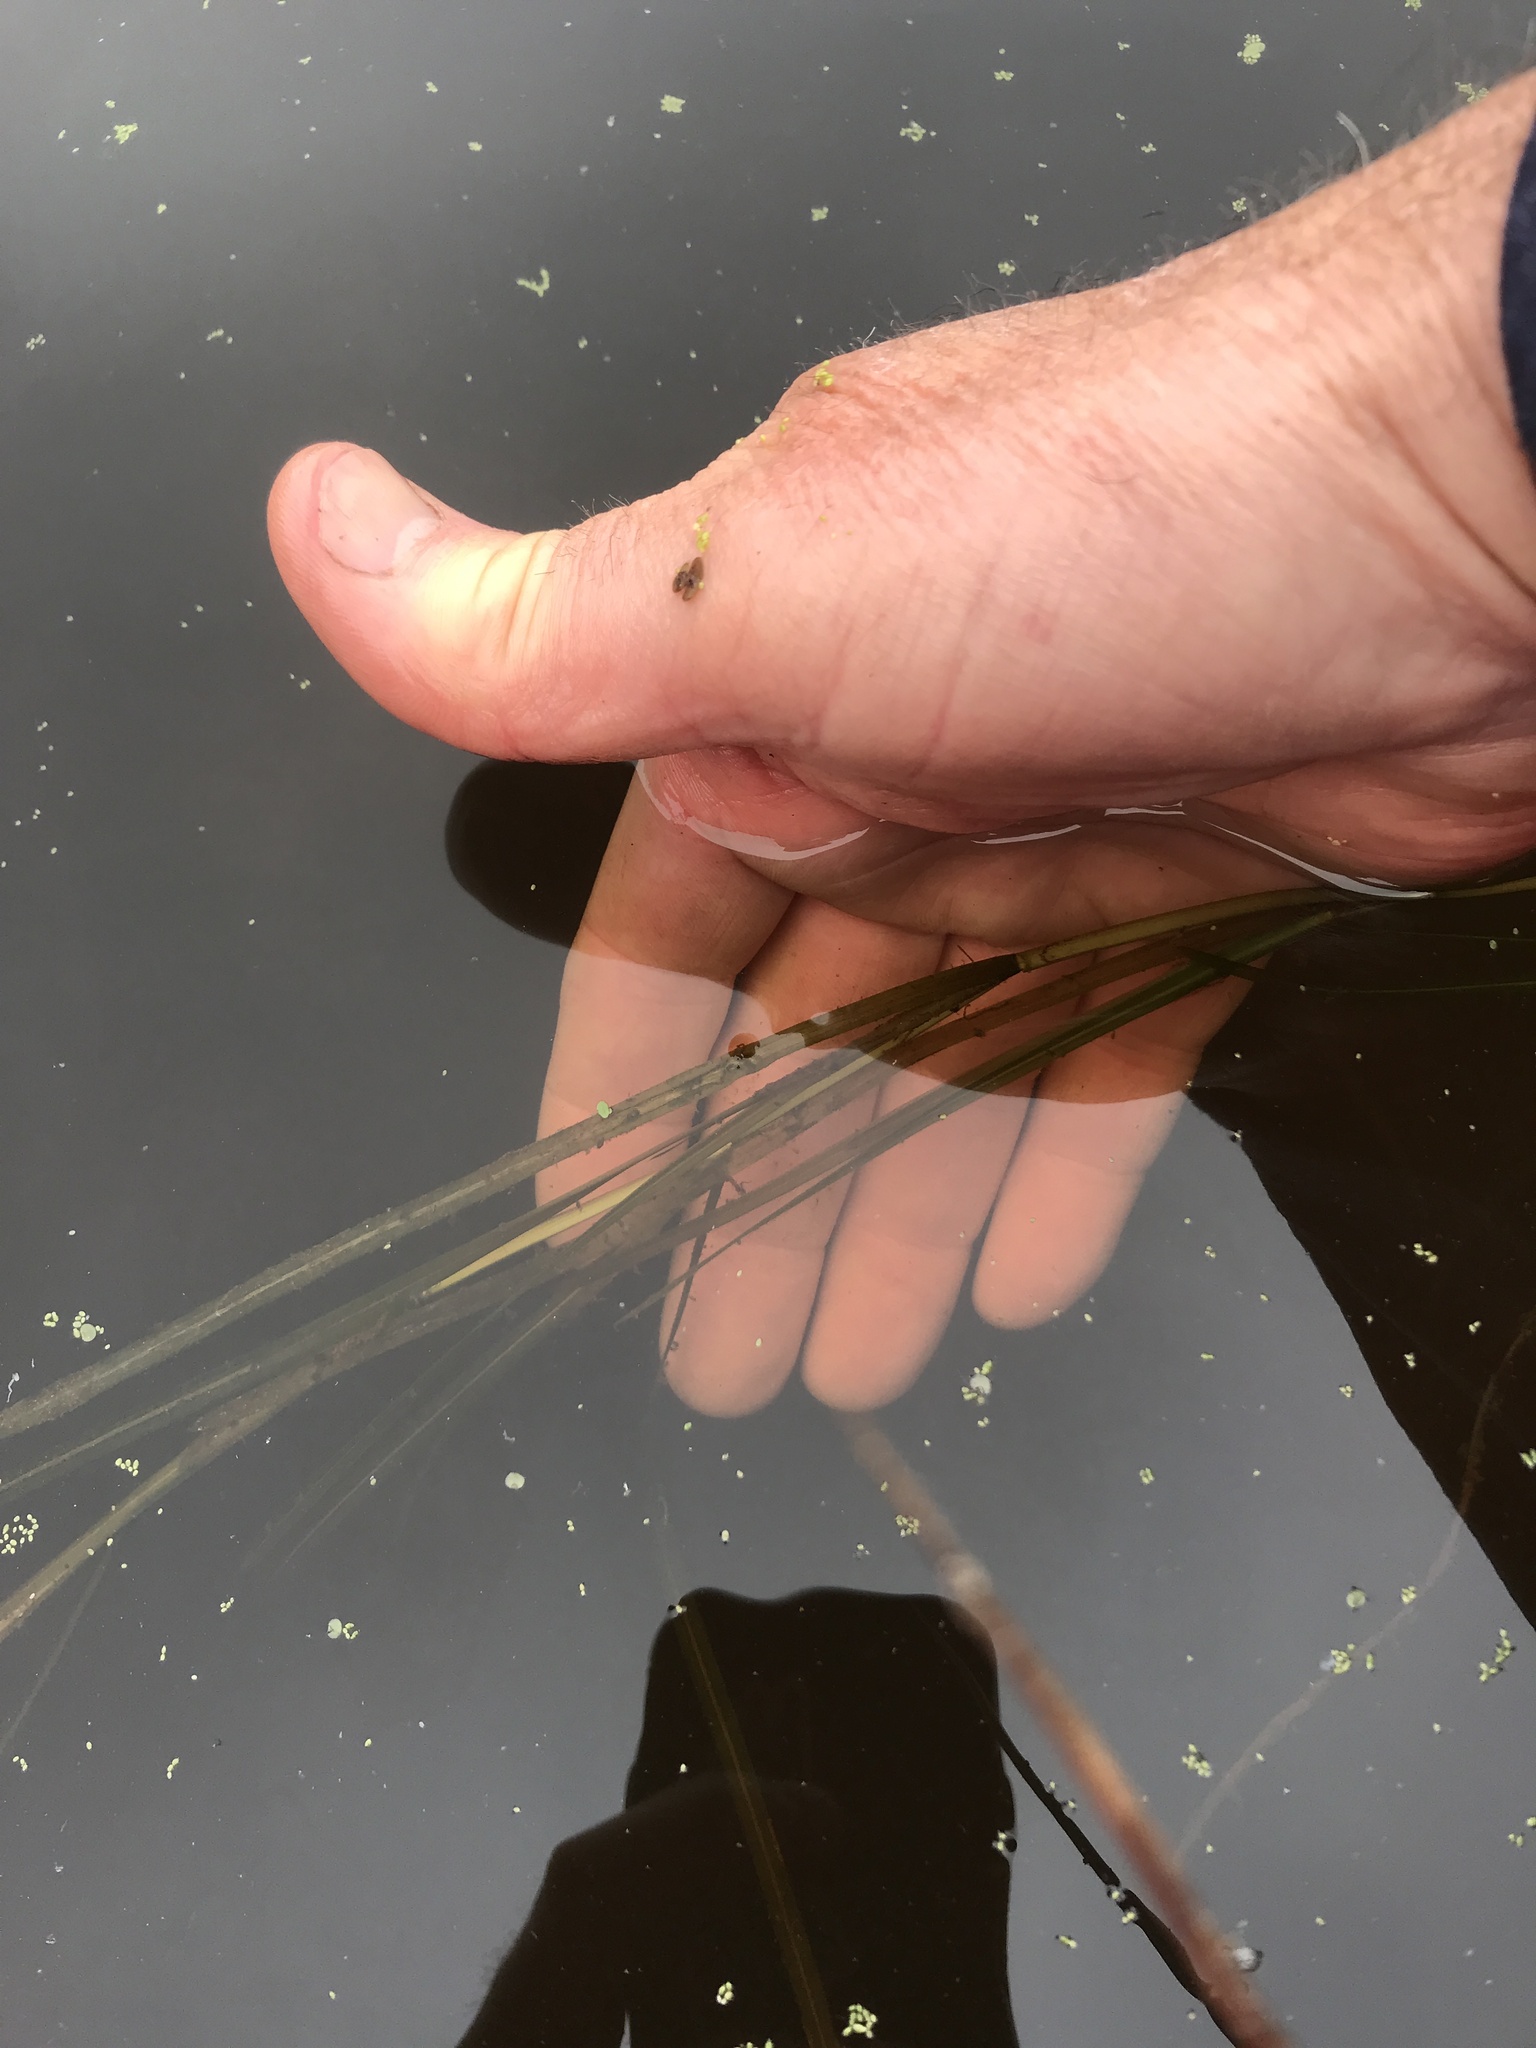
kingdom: Plantae
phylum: Tracheophyta
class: Liliopsida
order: Alismatales
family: Potamogetonaceae
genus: Potamogeton
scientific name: Potamogeton zosteriformis
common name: Eelgrass pondweed
